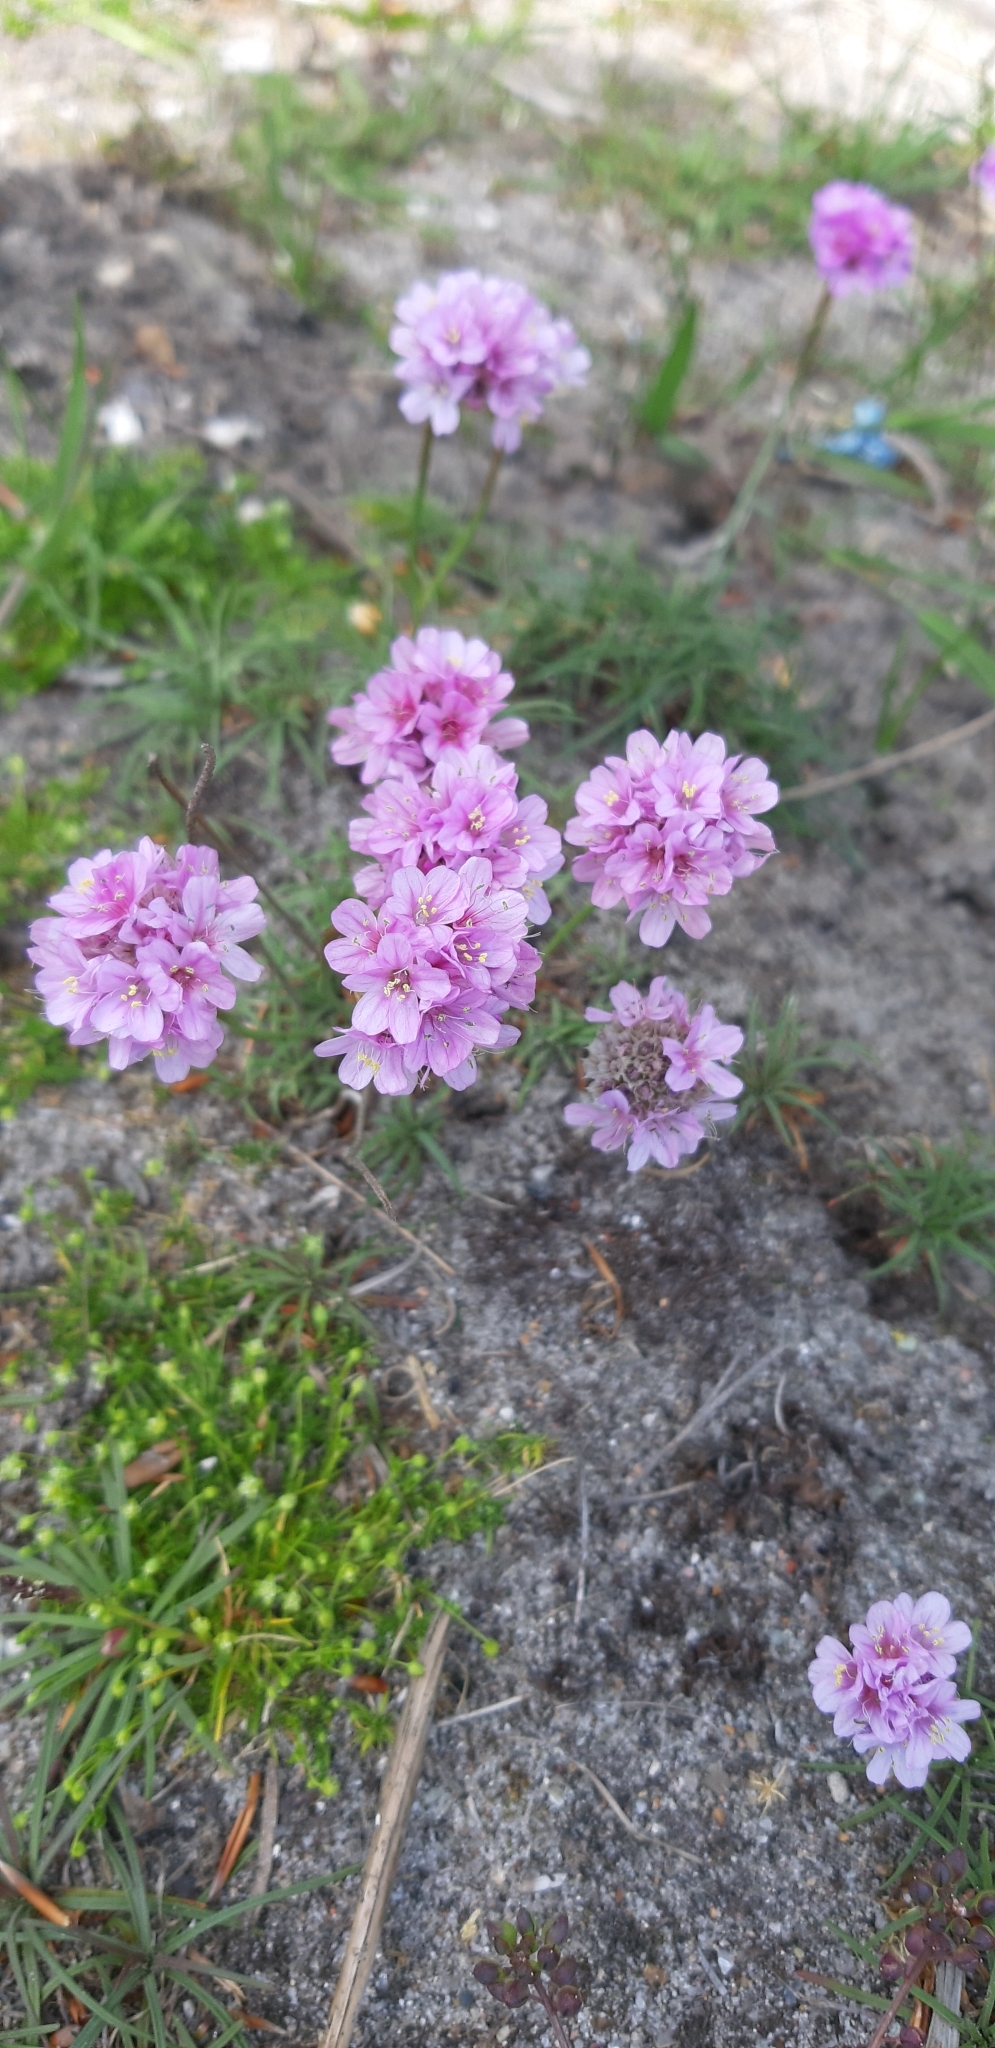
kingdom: Plantae
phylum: Tracheophyta
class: Magnoliopsida
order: Caryophyllales
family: Plumbaginaceae
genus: Armeria
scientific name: Armeria maritima
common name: Thrift
